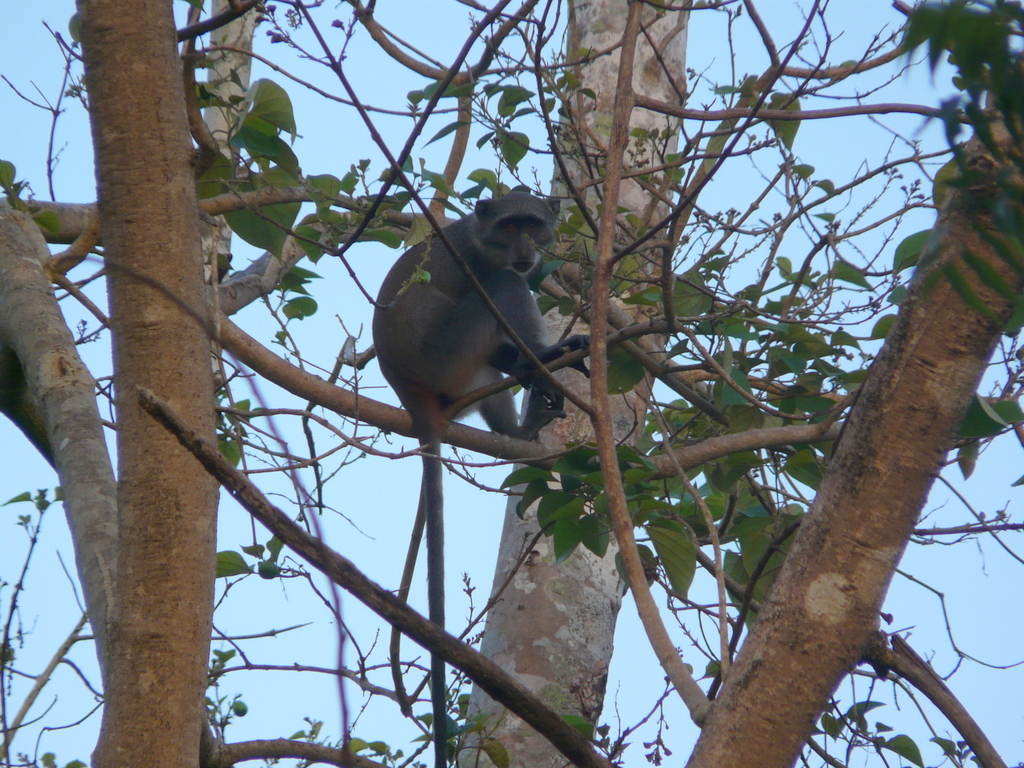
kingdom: Animalia
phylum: Chordata
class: Mammalia
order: Primates
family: Cercopithecidae
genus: Cercopithecus
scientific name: Cercopithecus mitis
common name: Blue monkey
